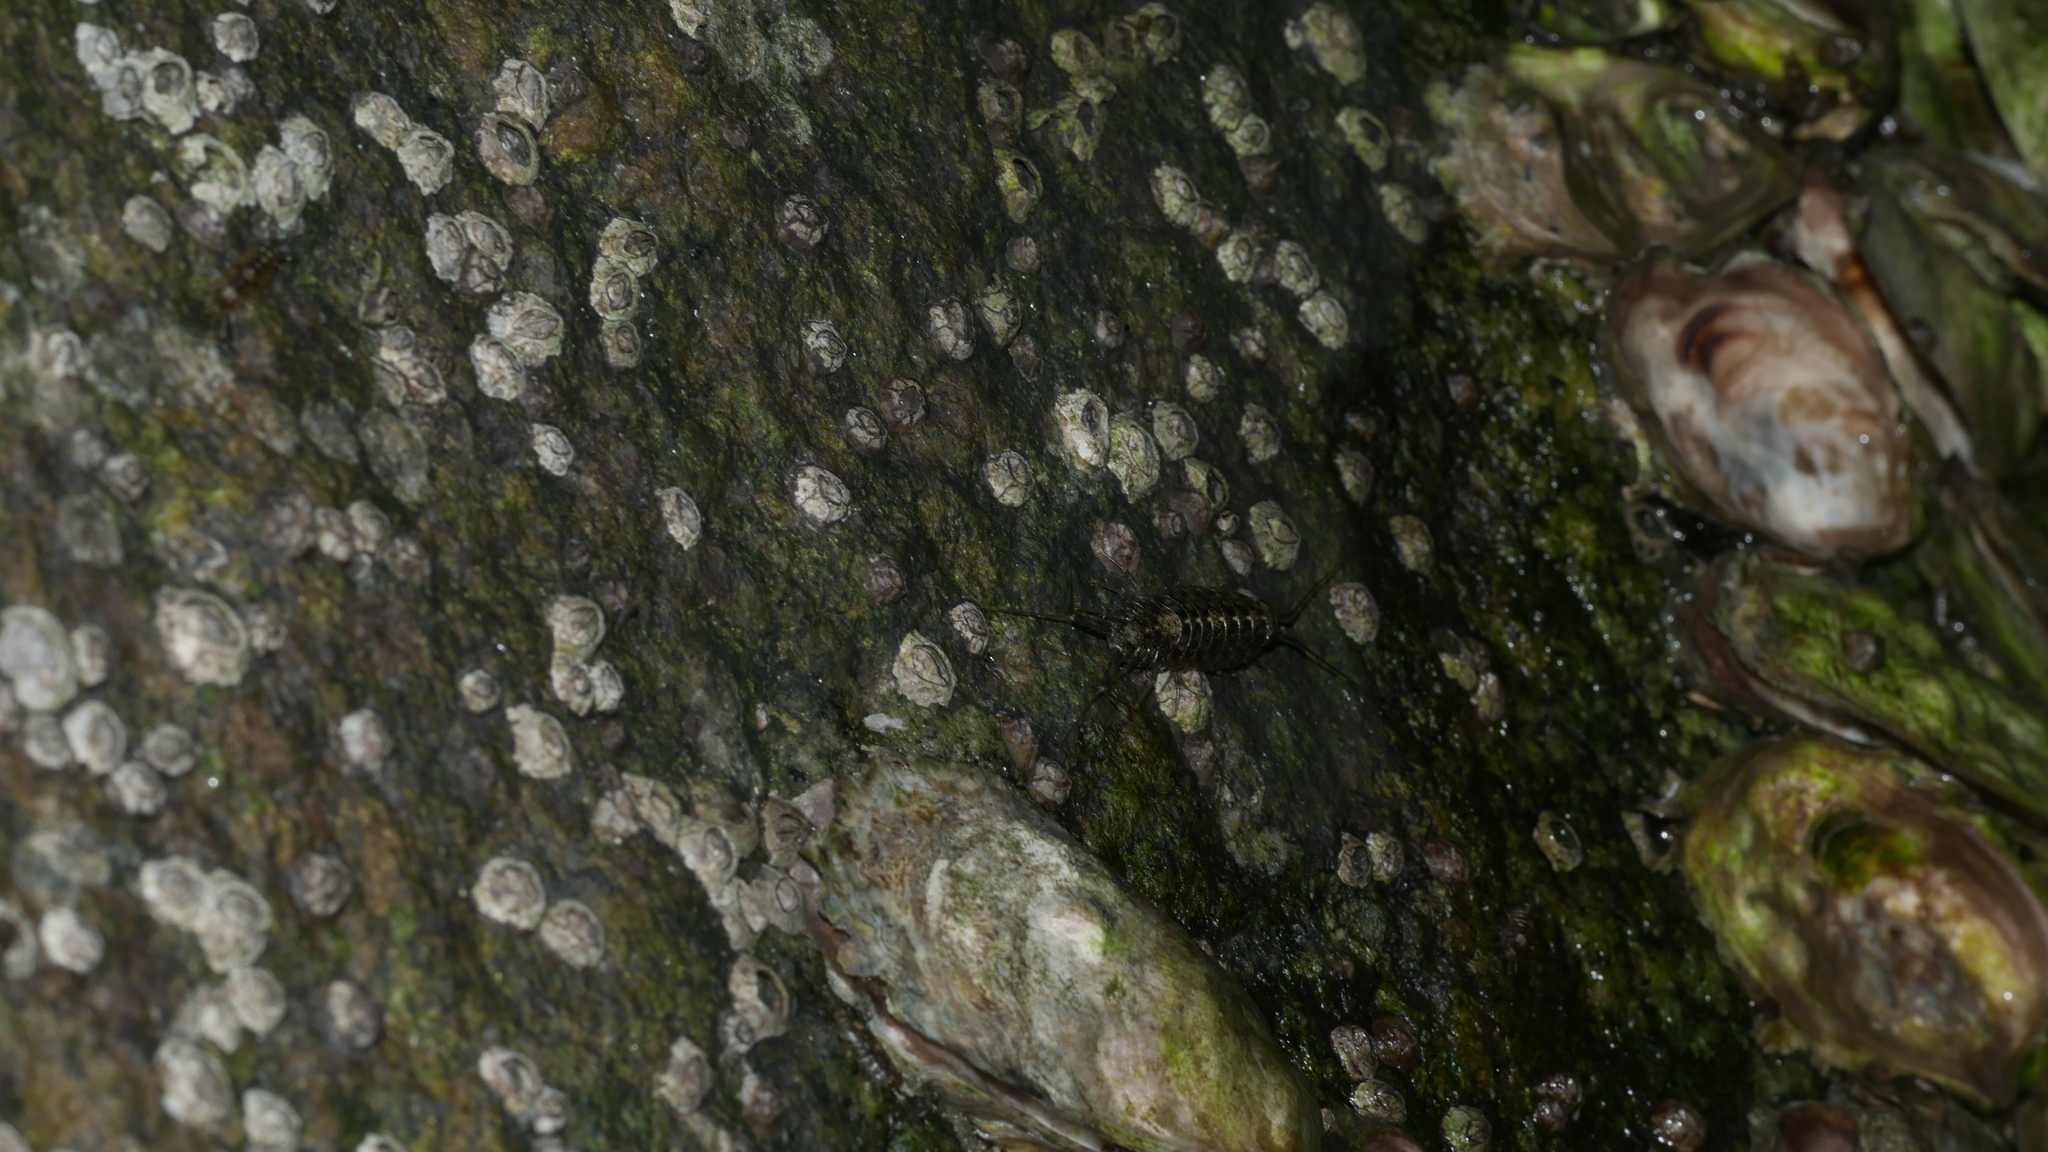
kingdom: Animalia
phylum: Arthropoda
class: Malacostraca
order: Isopoda
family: Ligiidae
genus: Ligia
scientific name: Ligia exotica
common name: Wharf roach
